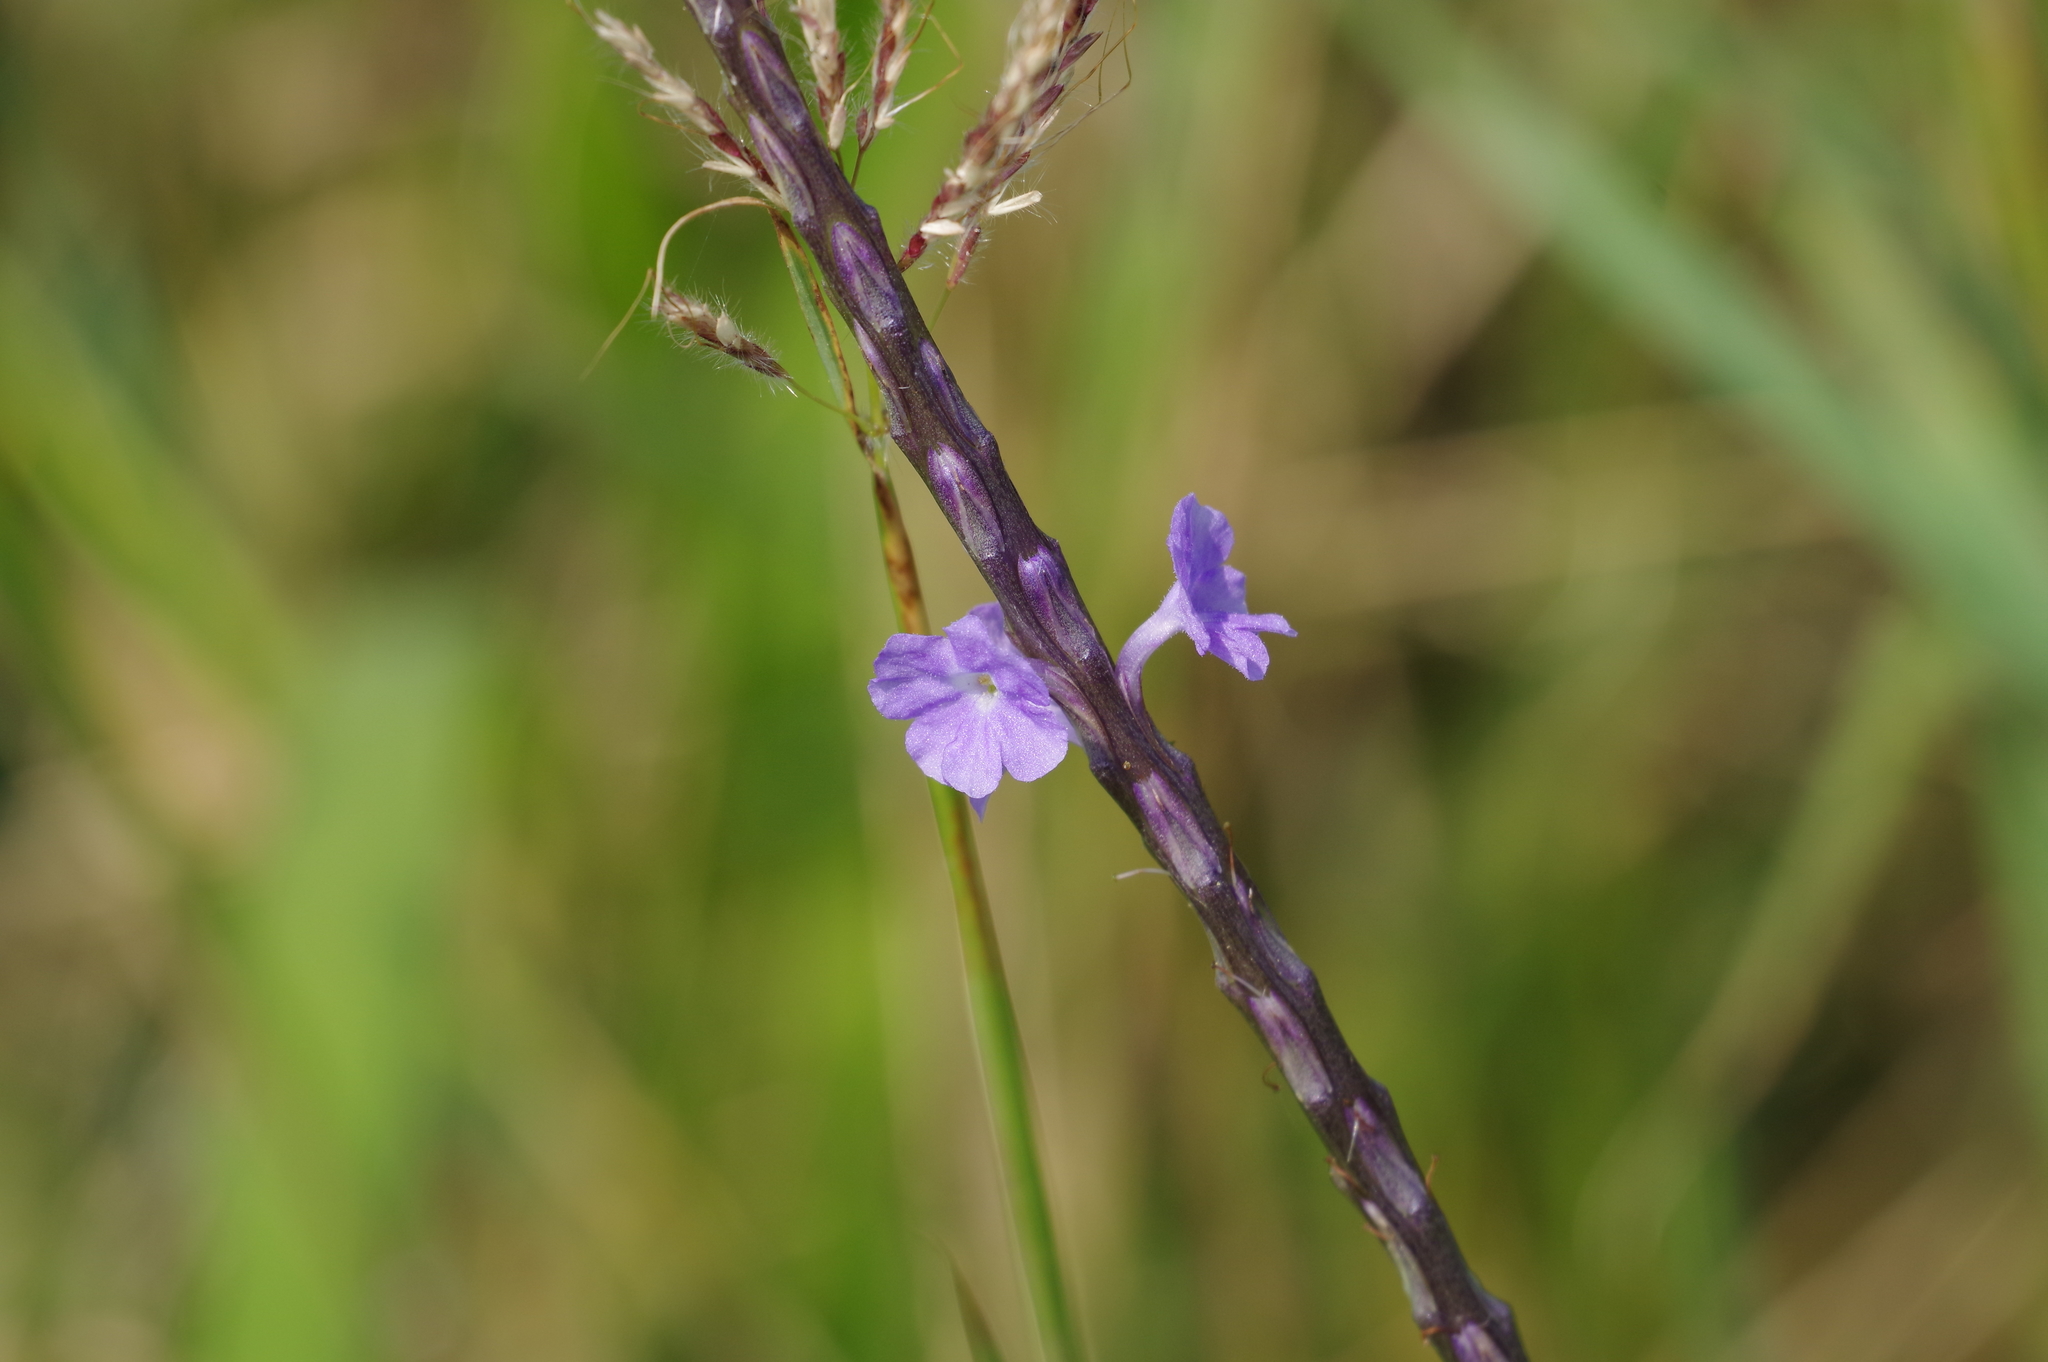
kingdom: Plantae
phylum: Tracheophyta
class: Magnoliopsida
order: Lamiales
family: Verbenaceae
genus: Stachytarpheta
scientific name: Stachytarpheta jamaicensis
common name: Light-blue snakeweed
